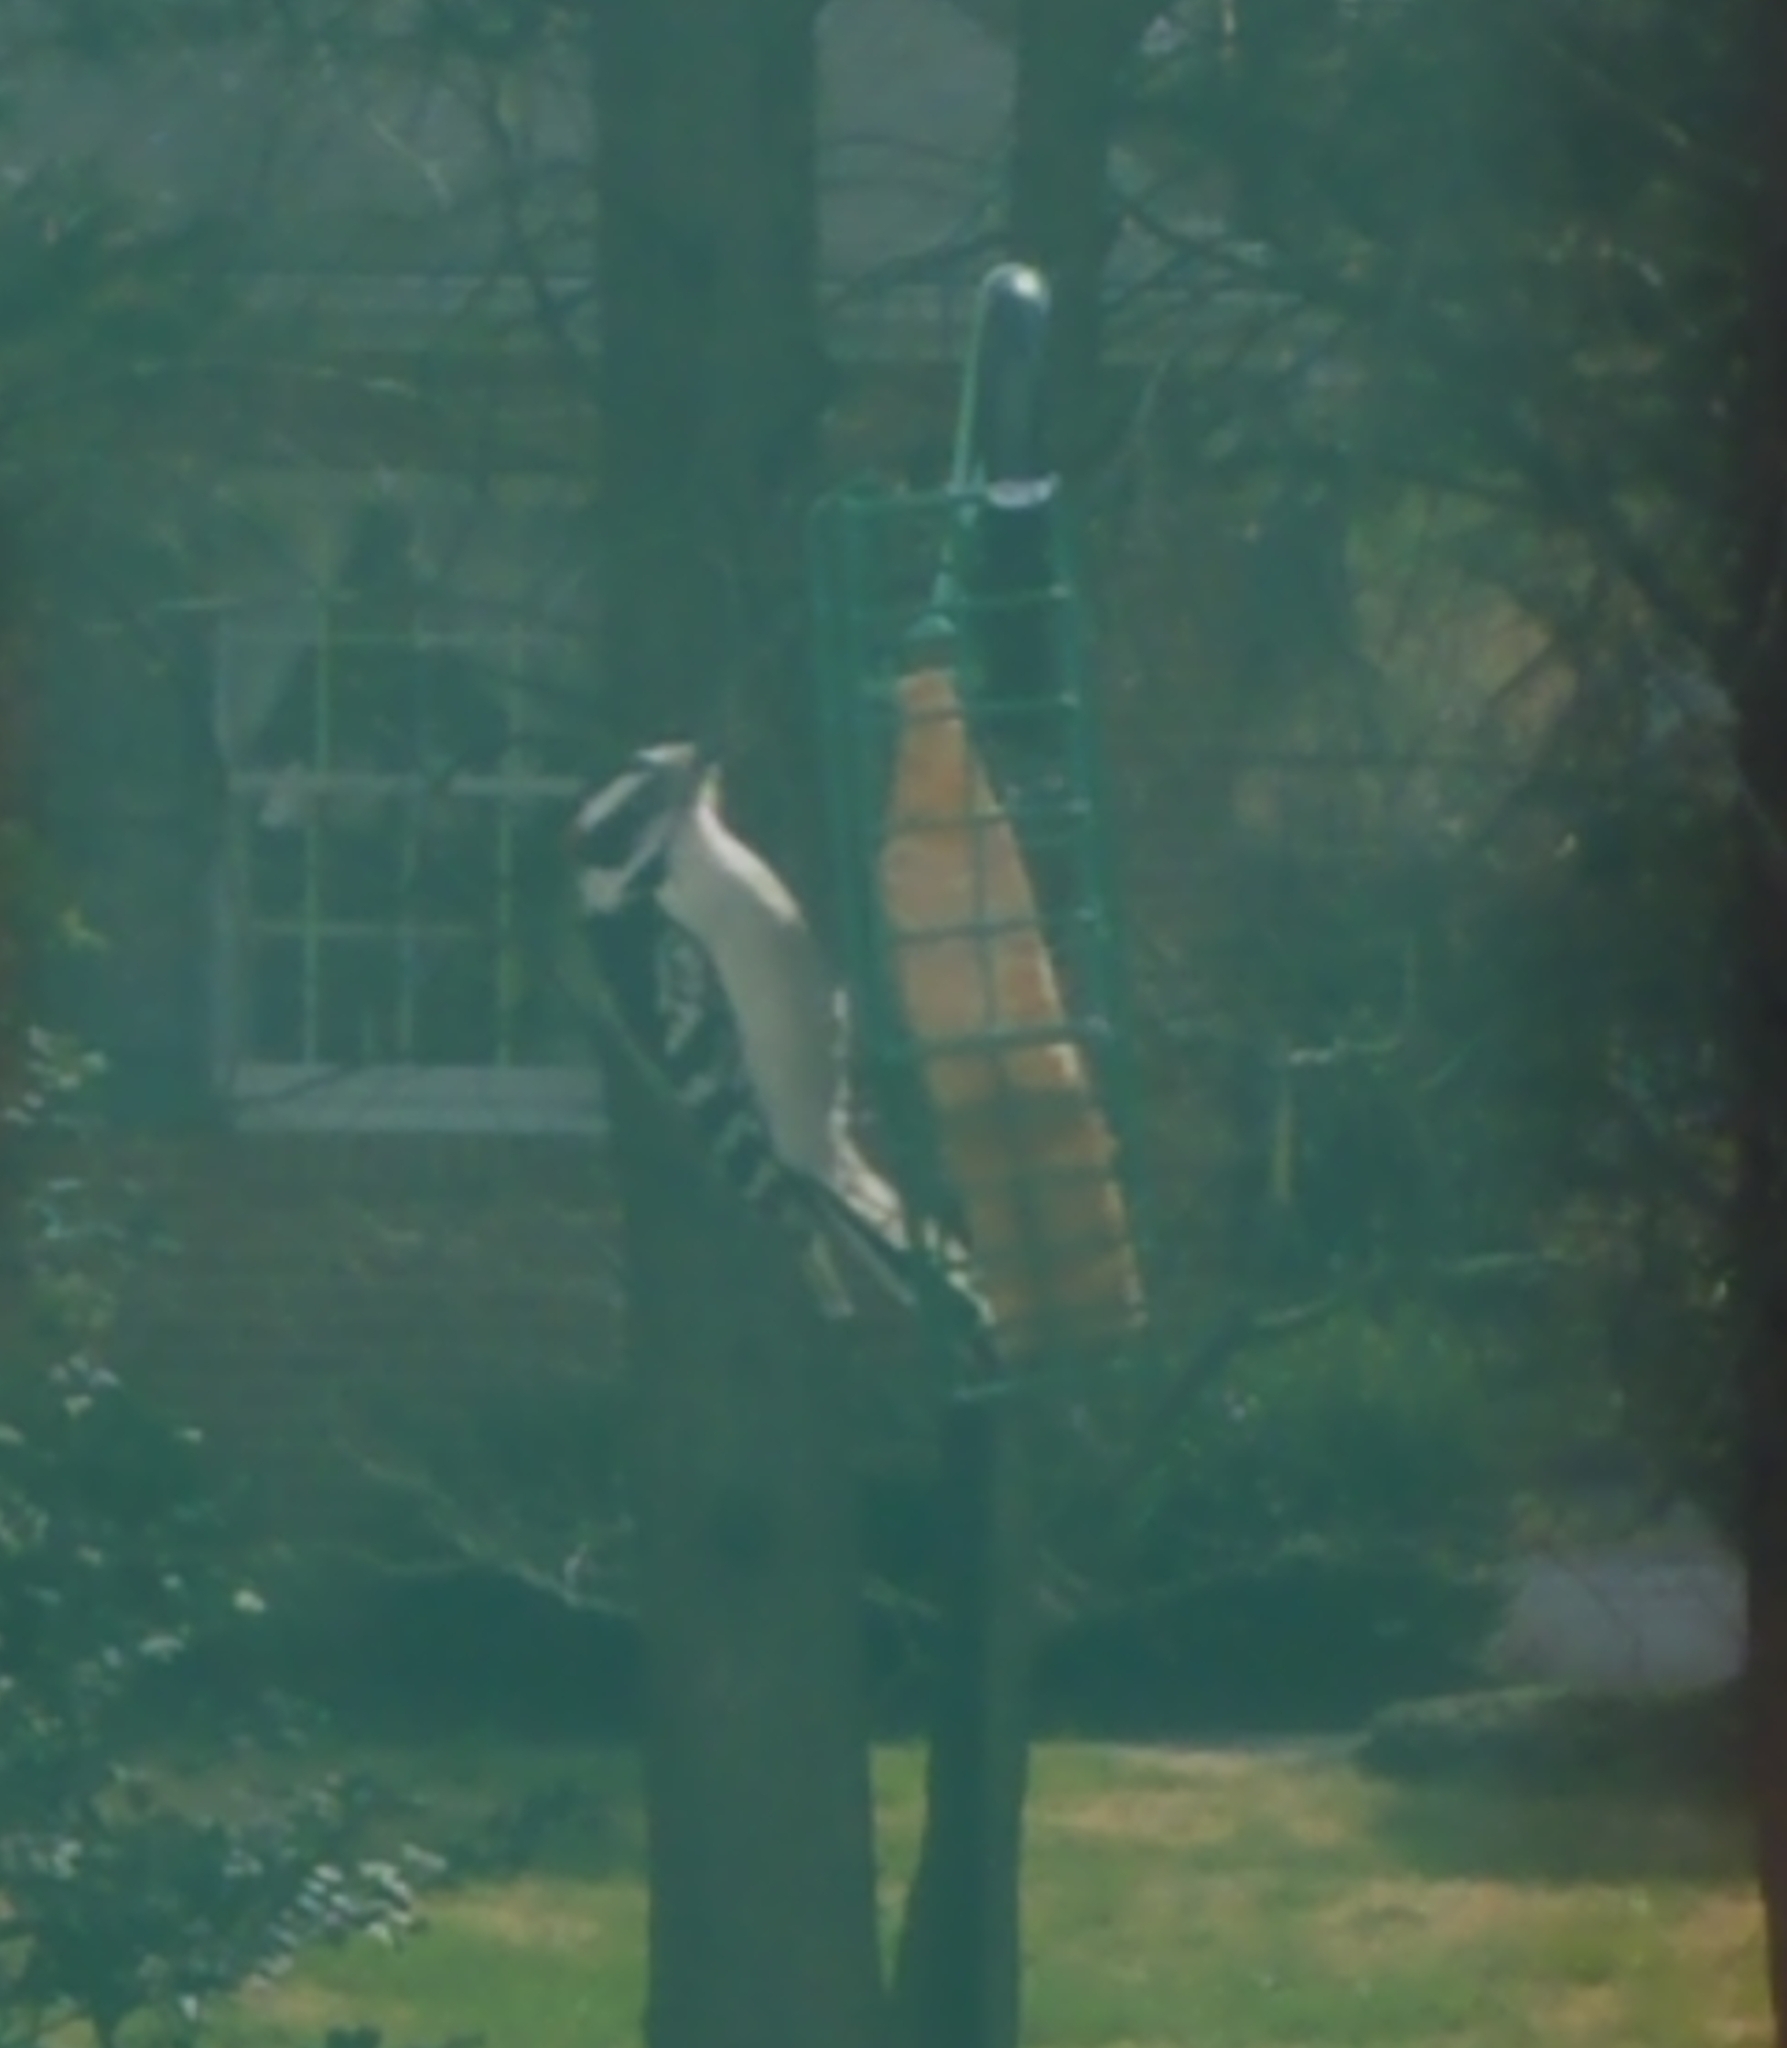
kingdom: Animalia
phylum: Chordata
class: Aves
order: Piciformes
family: Picidae
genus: Dryobates
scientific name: Dryobates pubescens
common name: Downy woodpecker
